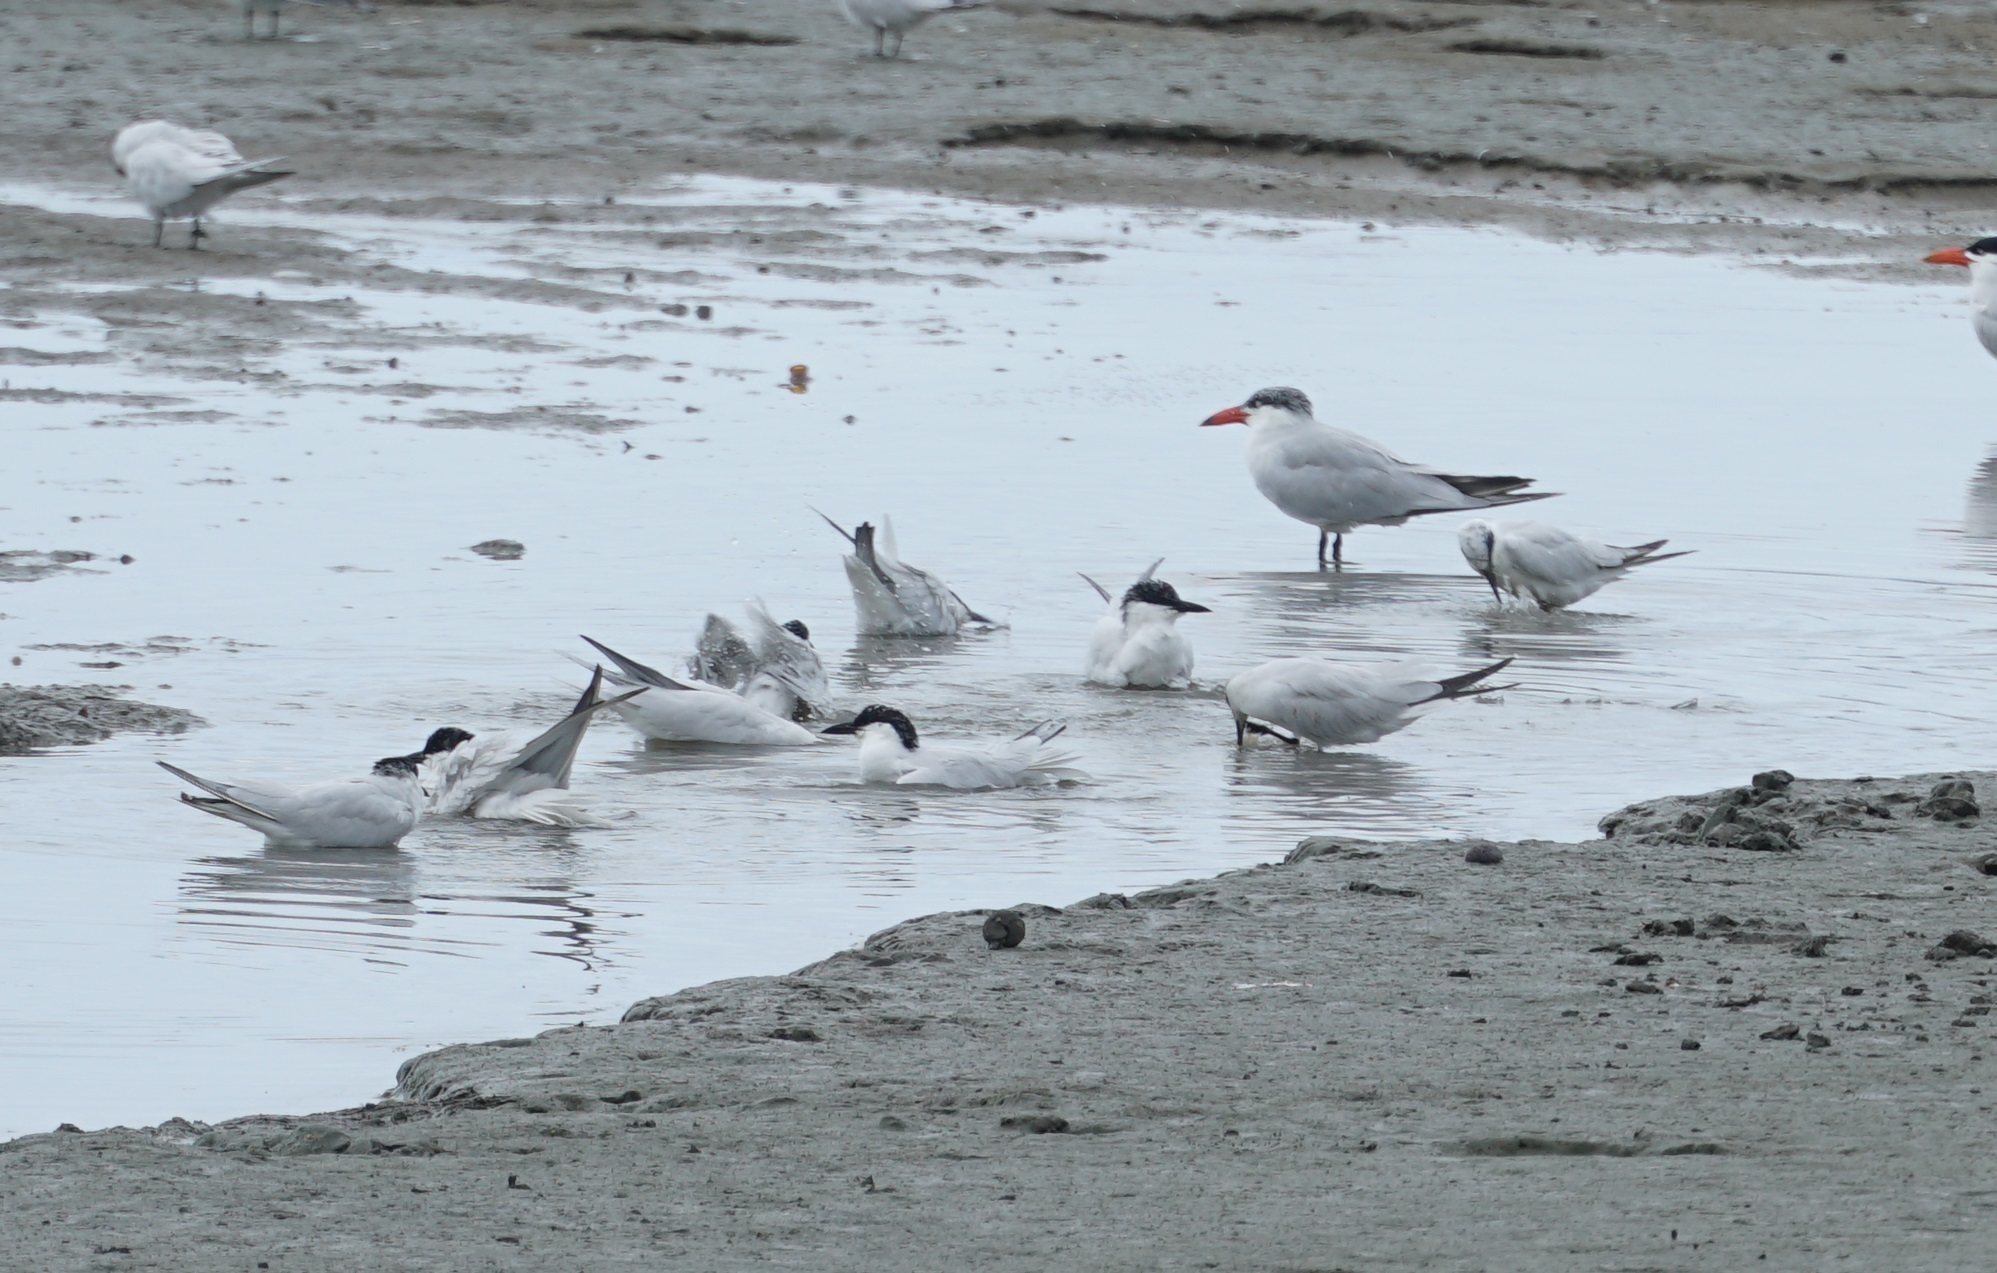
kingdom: Animalia
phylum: Chordata
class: Aves
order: Charadriiformes
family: Laridae
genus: Hydroprogne
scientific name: Hydroprogne caspia
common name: Caspian tern
